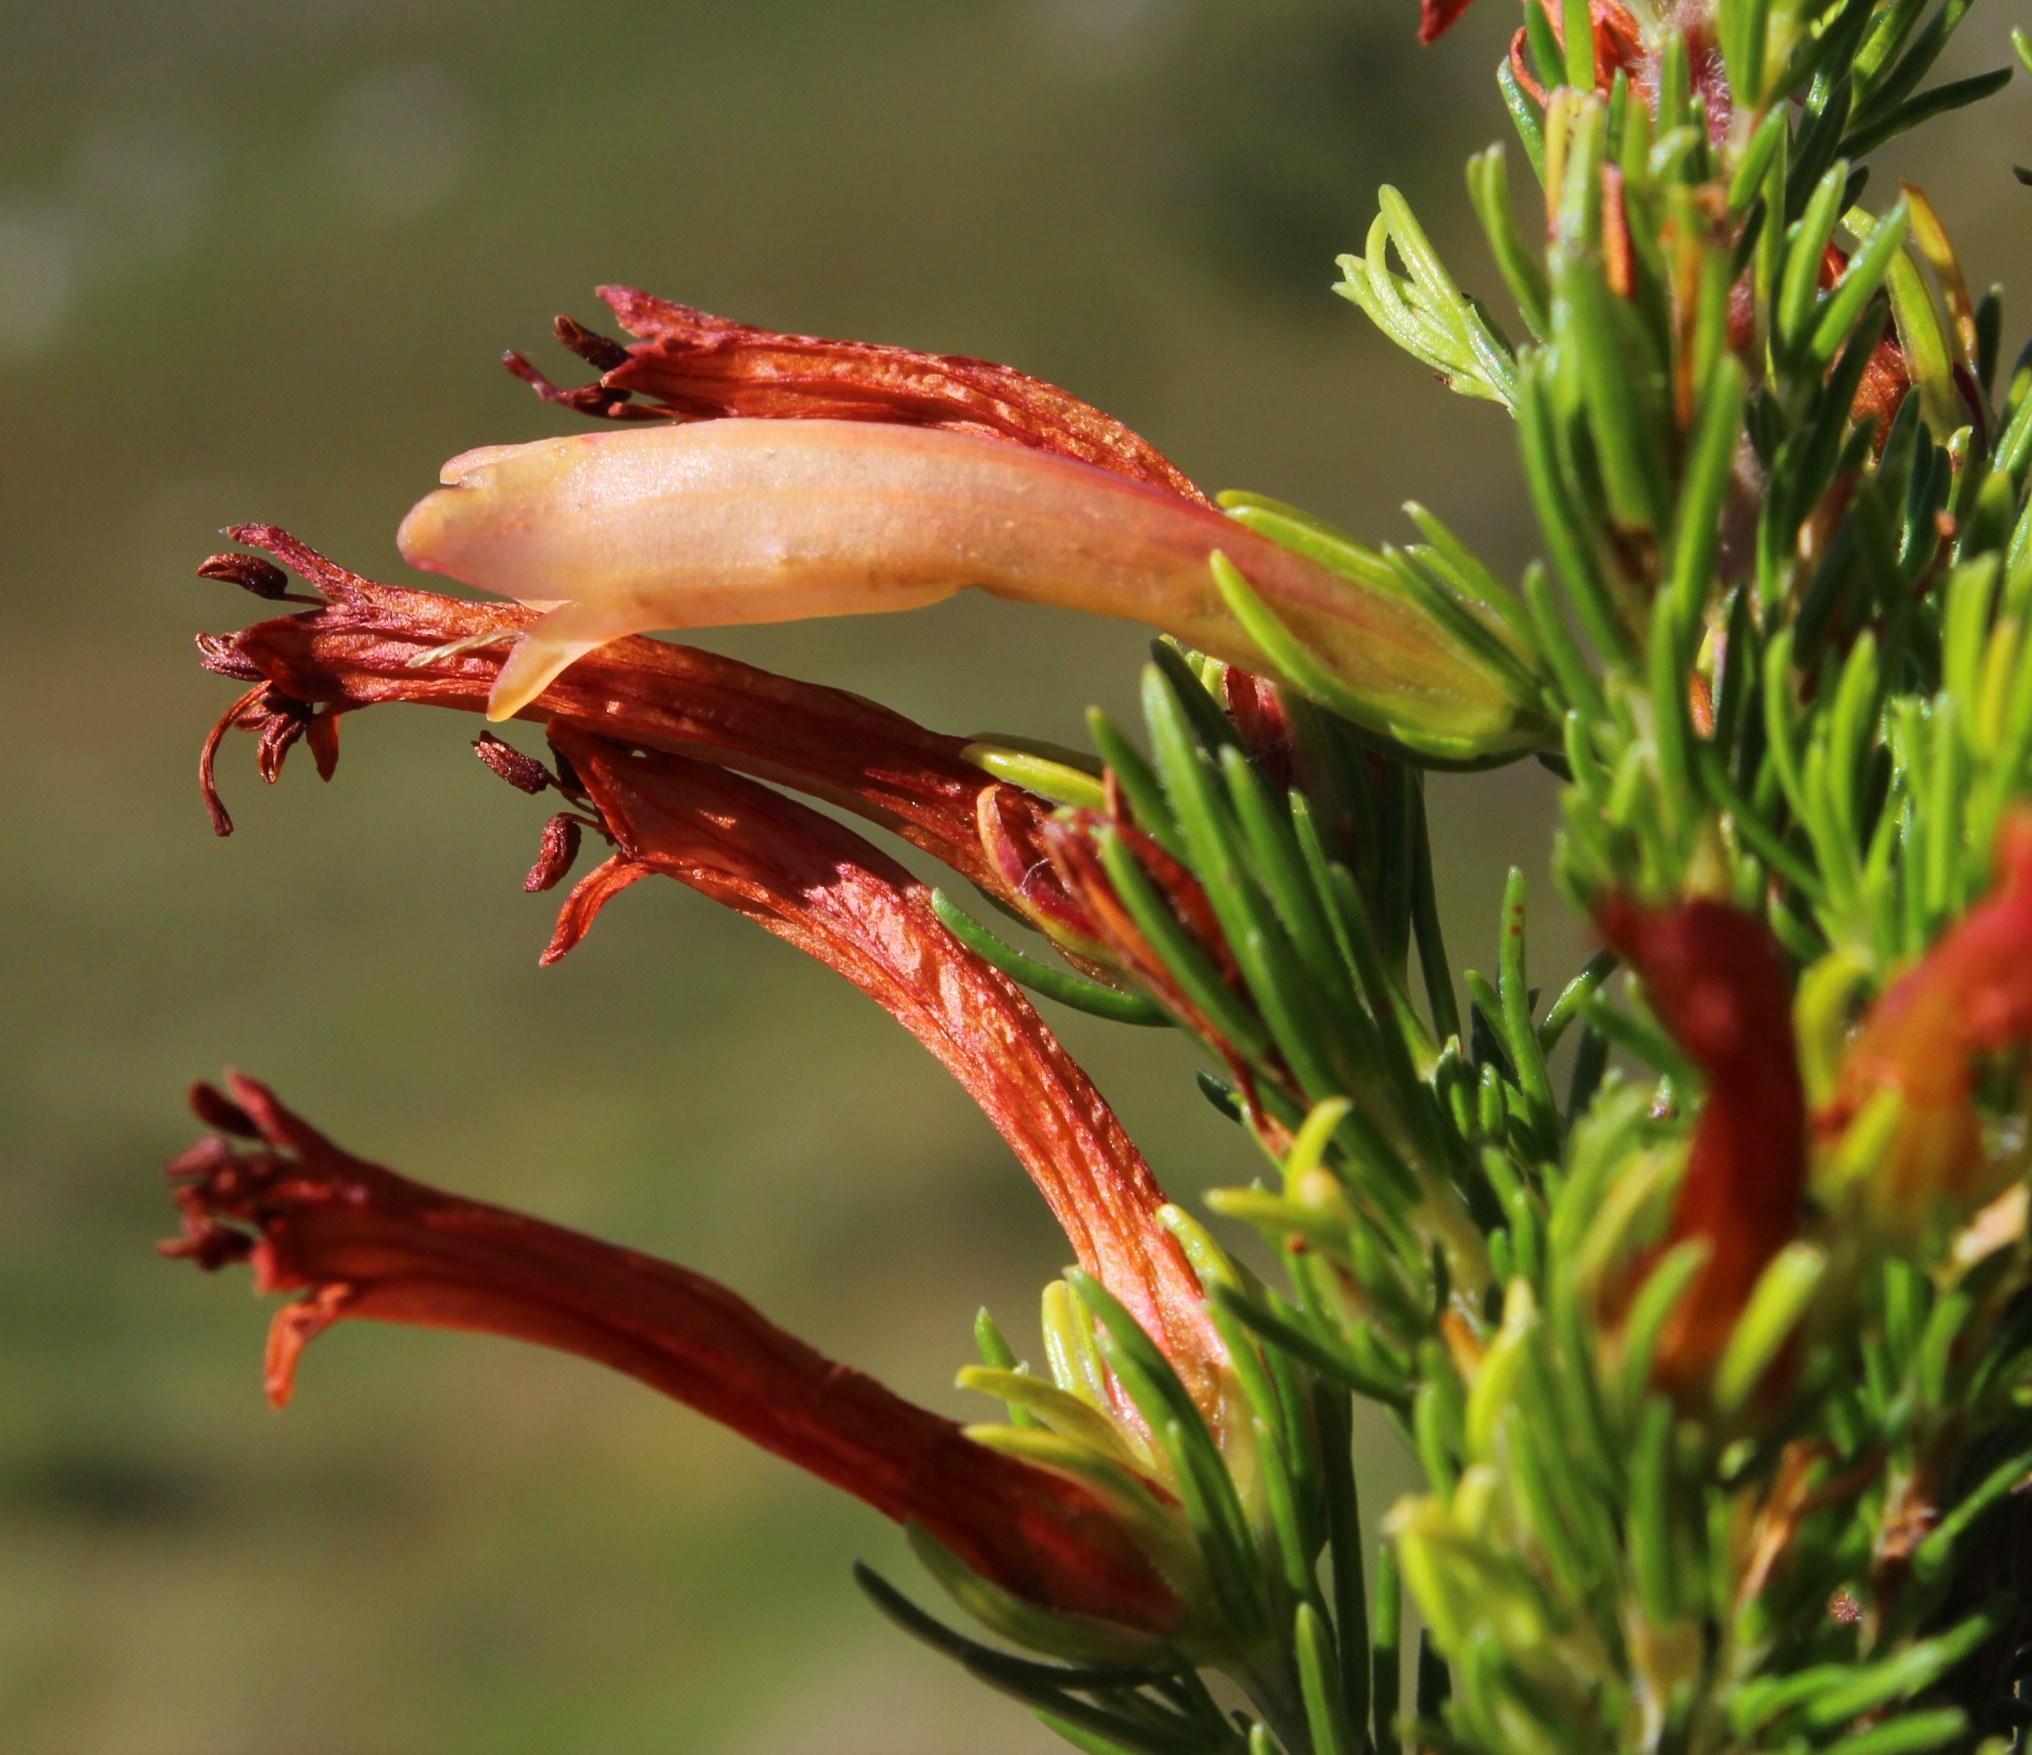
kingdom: Plantae
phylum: Tracheophyta
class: Magnoliopsida
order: Ericales
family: Ericaceae
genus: Erica
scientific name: Erica curviflora
